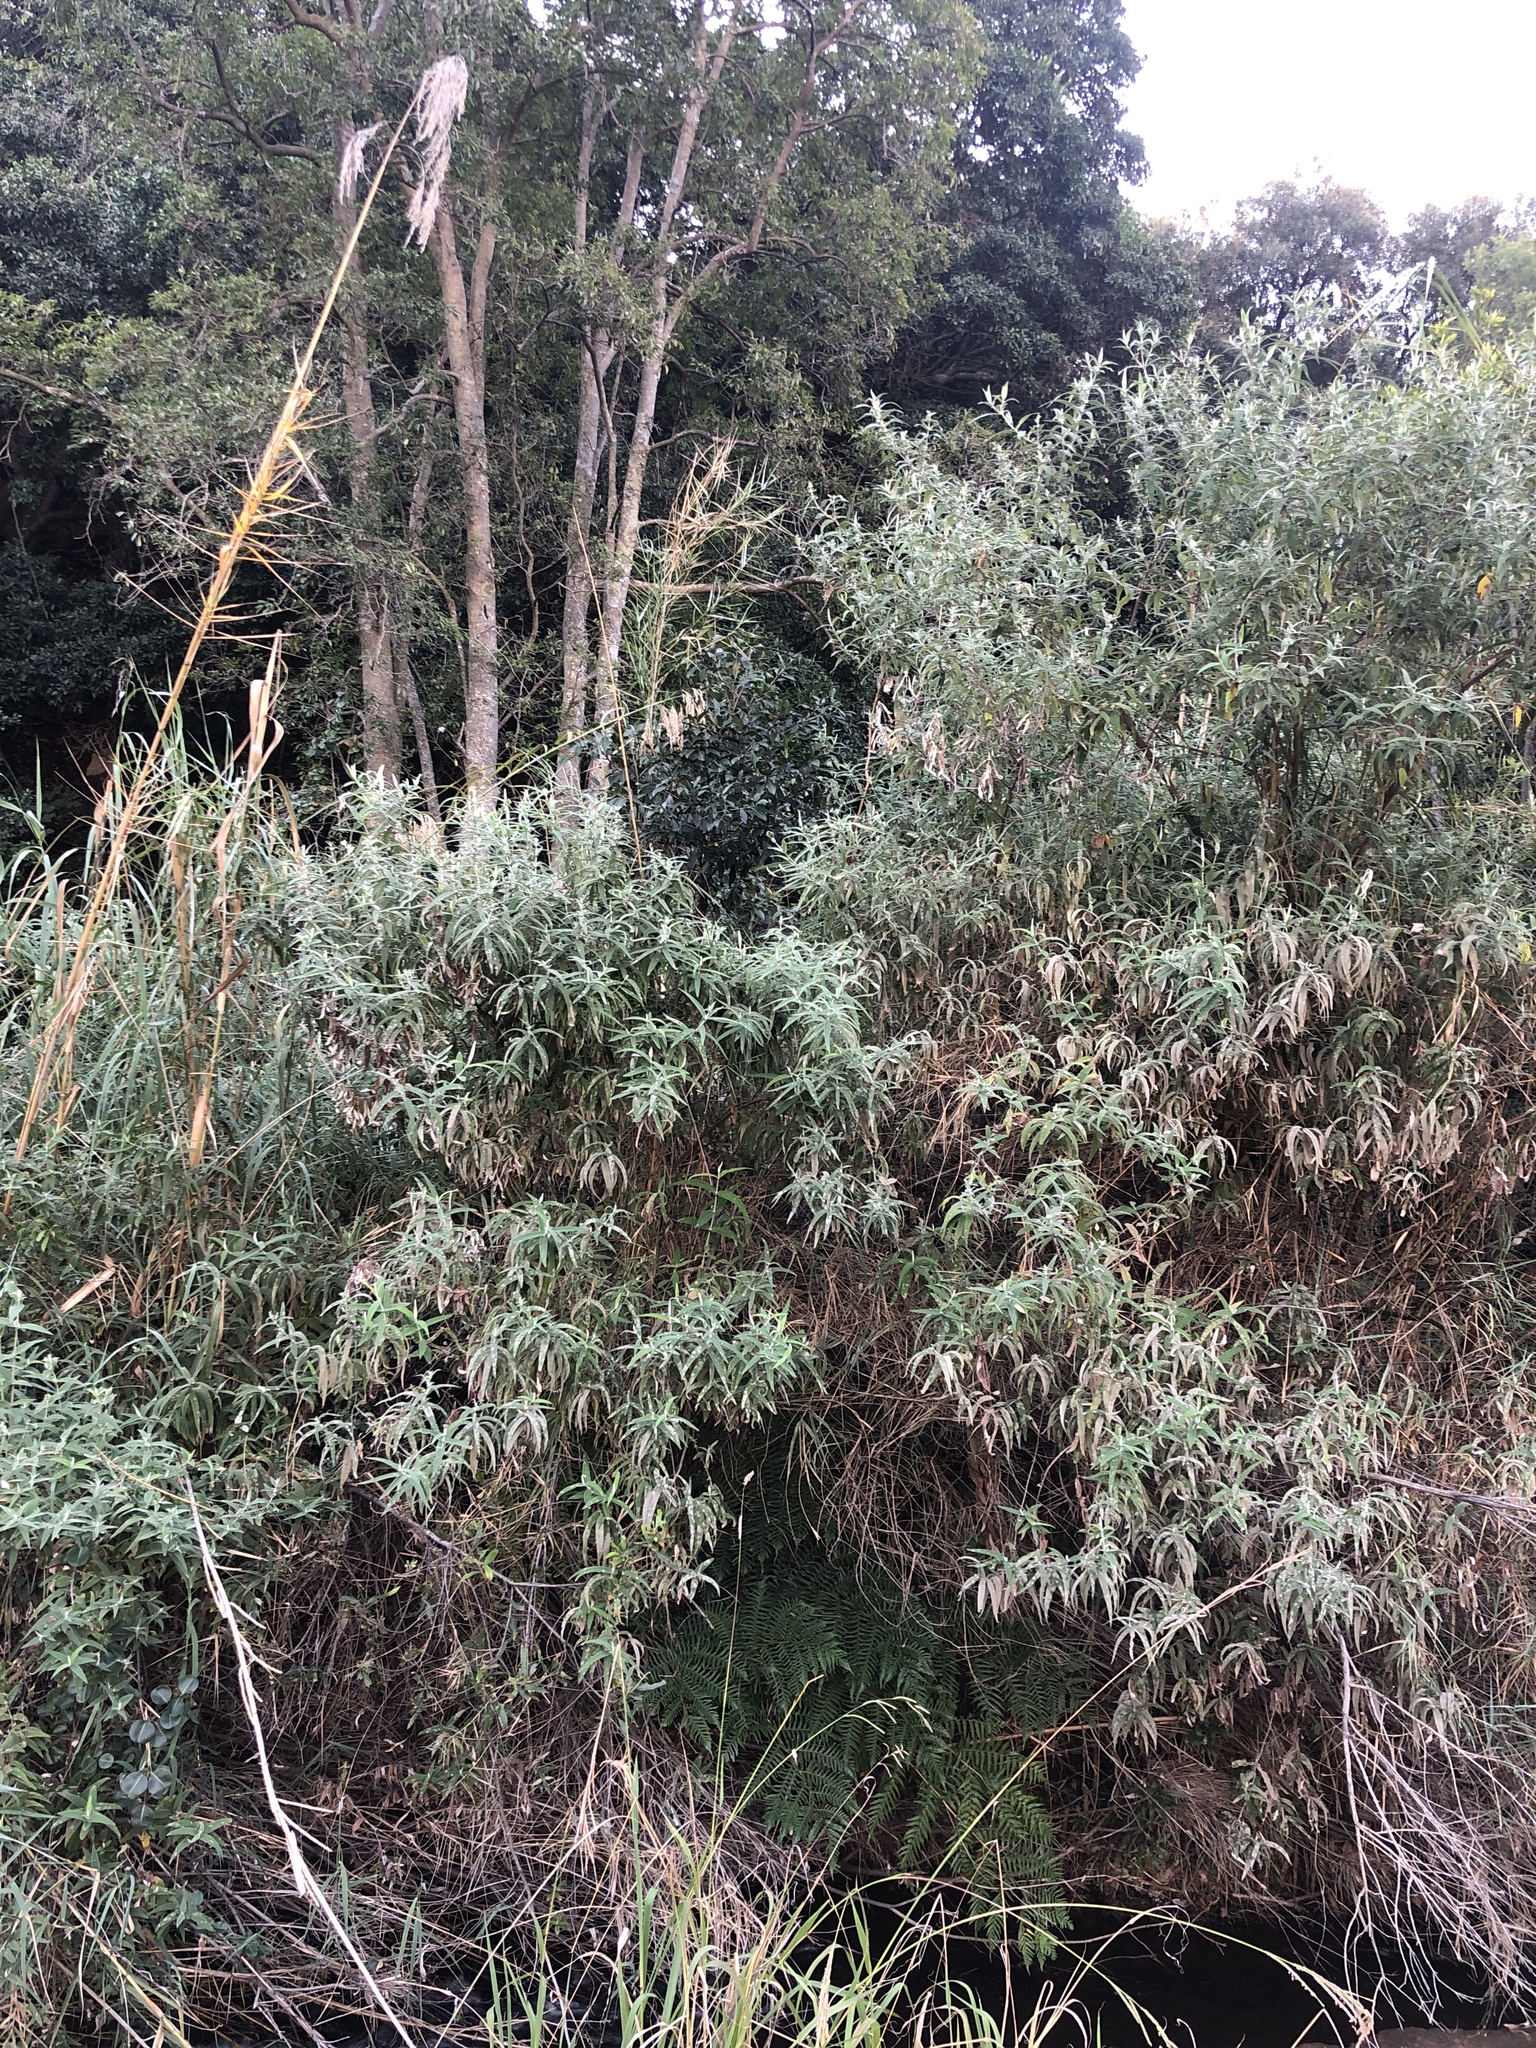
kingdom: Plantae
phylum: Tracheophyta
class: Magnoliopsida
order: Lamiales
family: Scrophulariaceae
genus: Buddleja
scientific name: Buddleja salviifolia
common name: Sagewood
